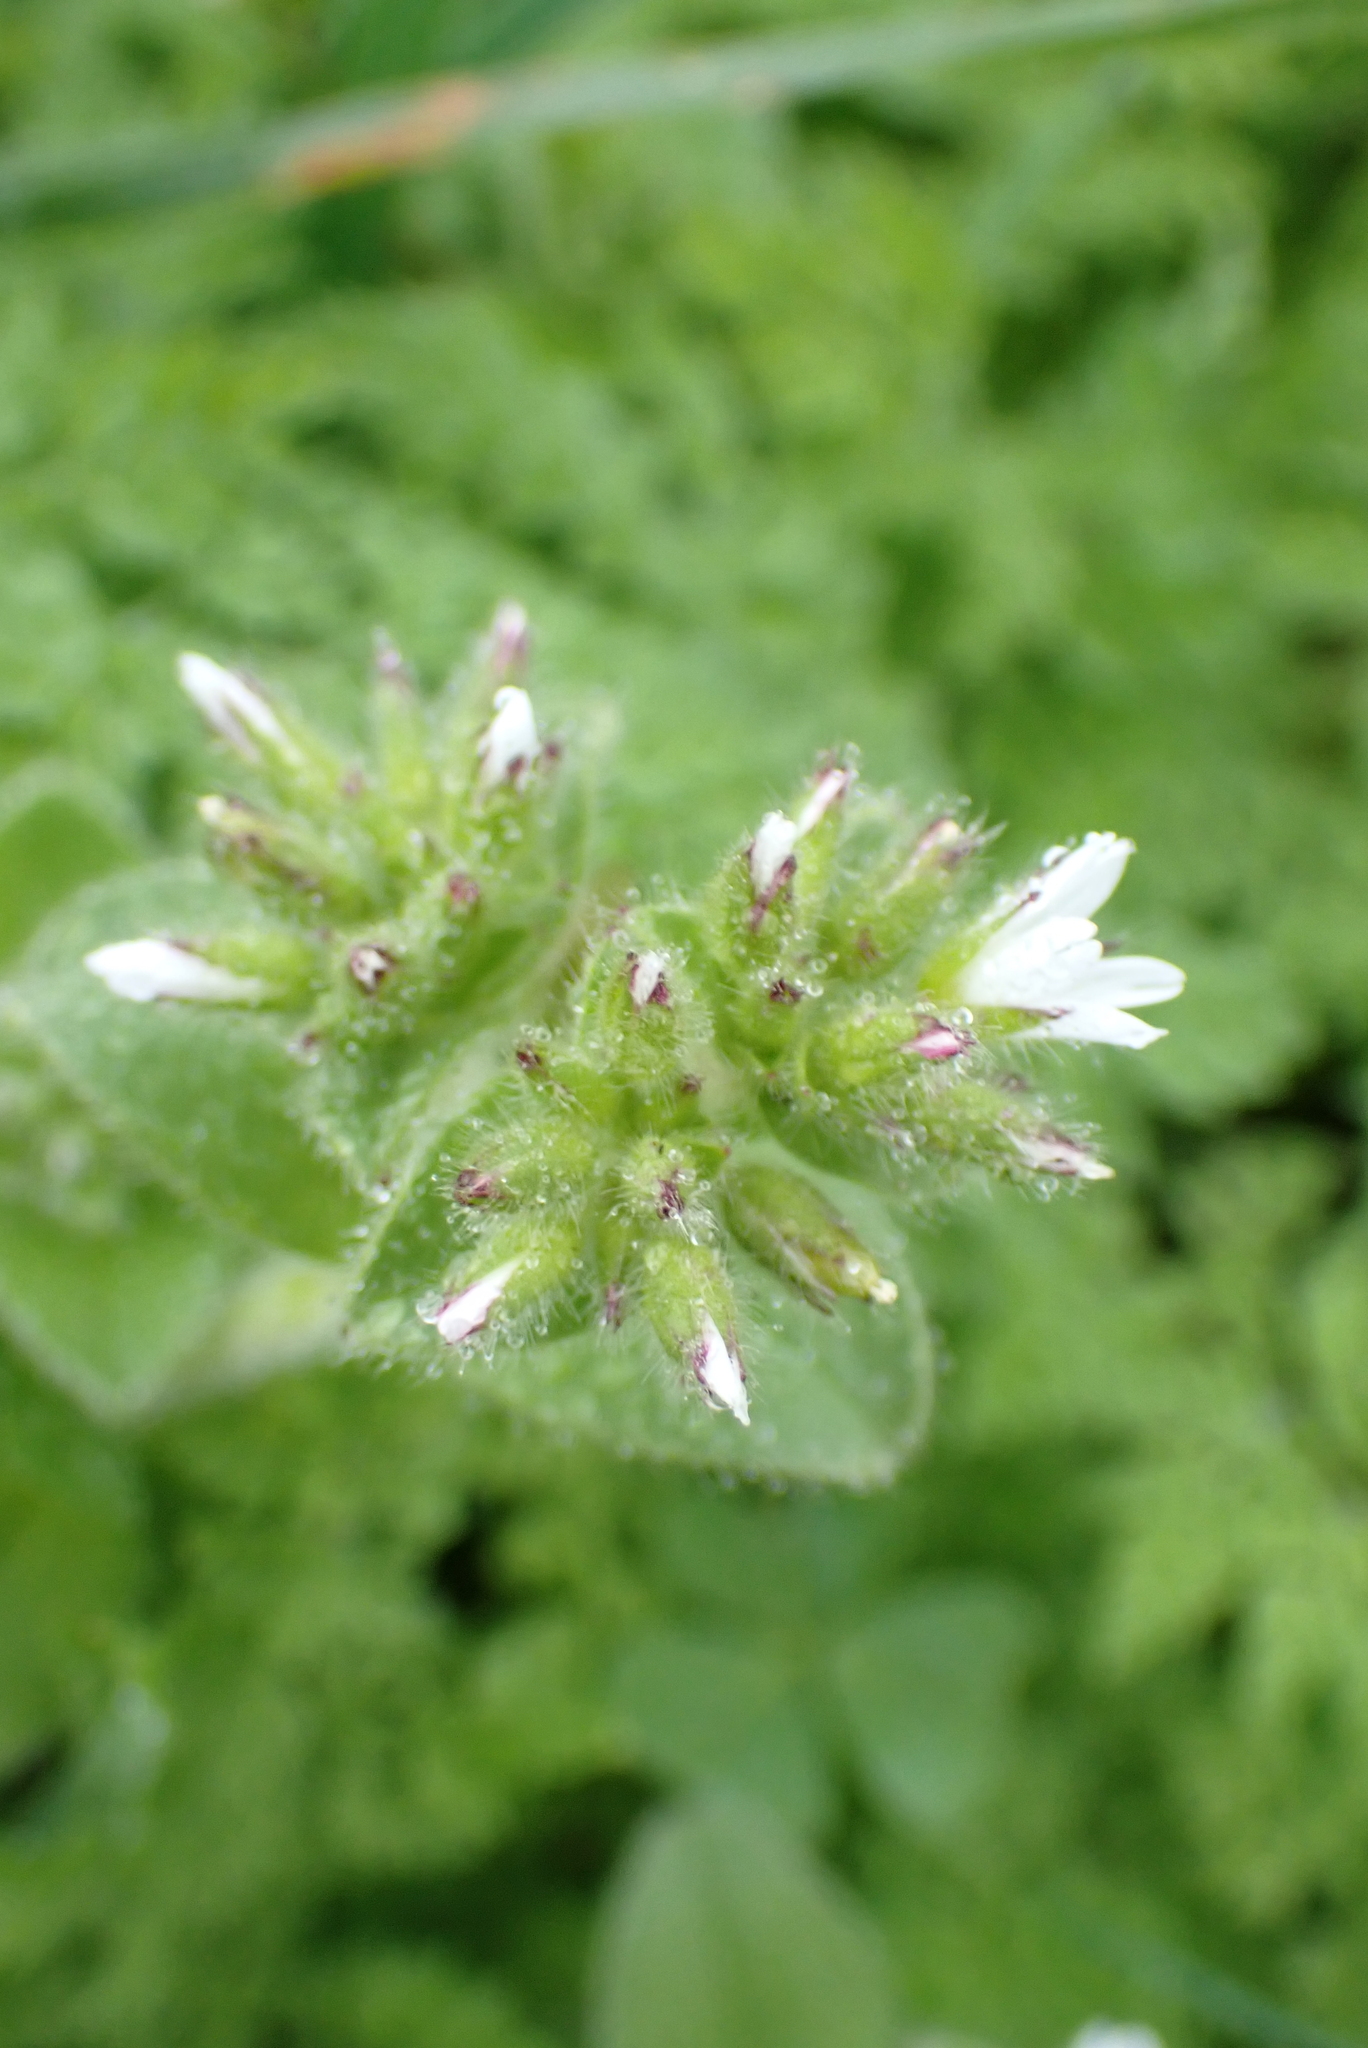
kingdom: Plantae
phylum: Tracheophyta
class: Magnoliopsida
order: Caryophyllales
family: Caryophyllaceae
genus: Cerastium
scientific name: Cerastium glomeratum
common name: Sticky chickweed
